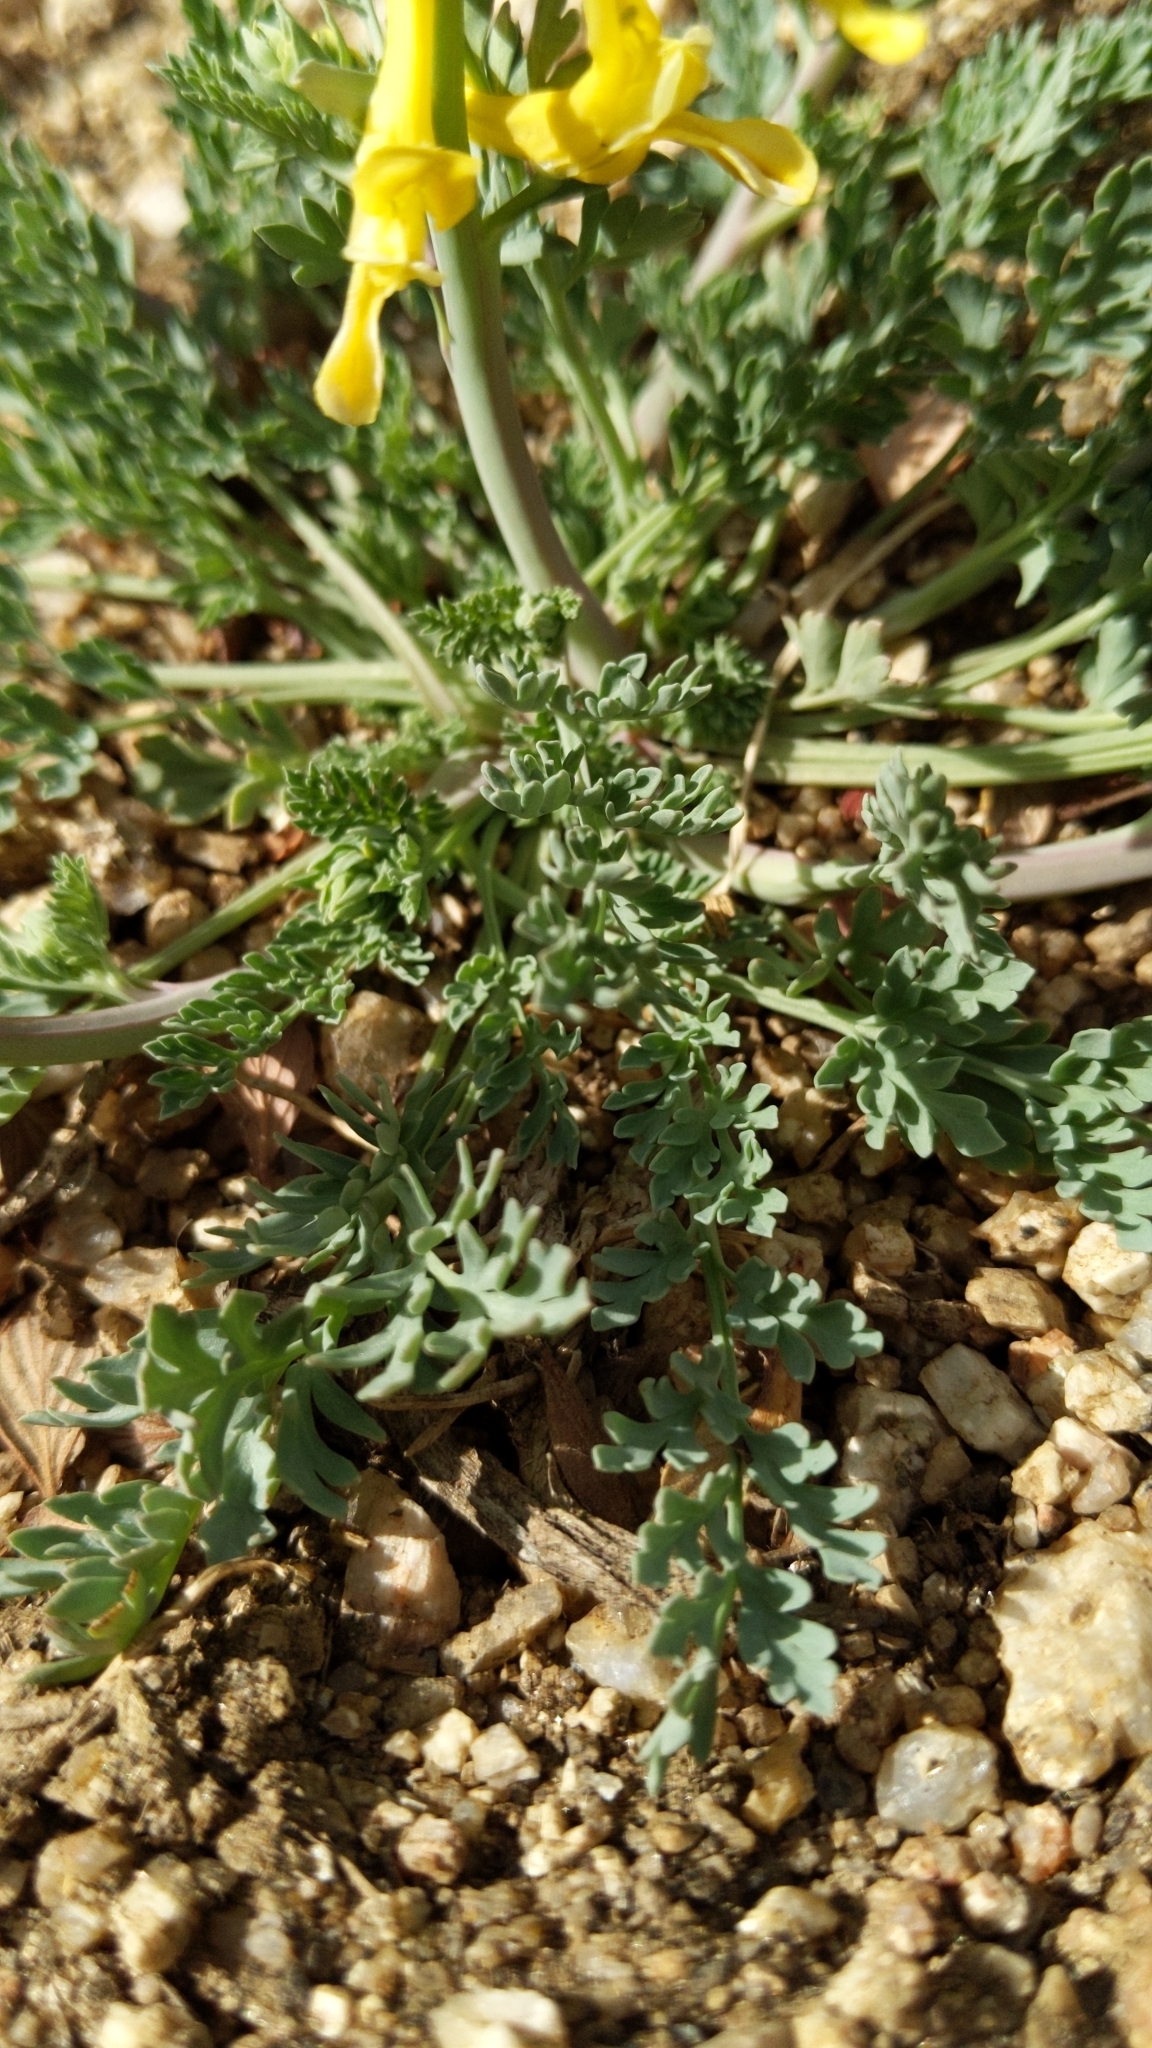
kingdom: Plantae
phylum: Tracheophyta
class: Magnoliopsida
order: Ranunculales
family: Papaveraceae
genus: Corydalis
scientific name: Corydalis aurea
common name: Golden corydalis
